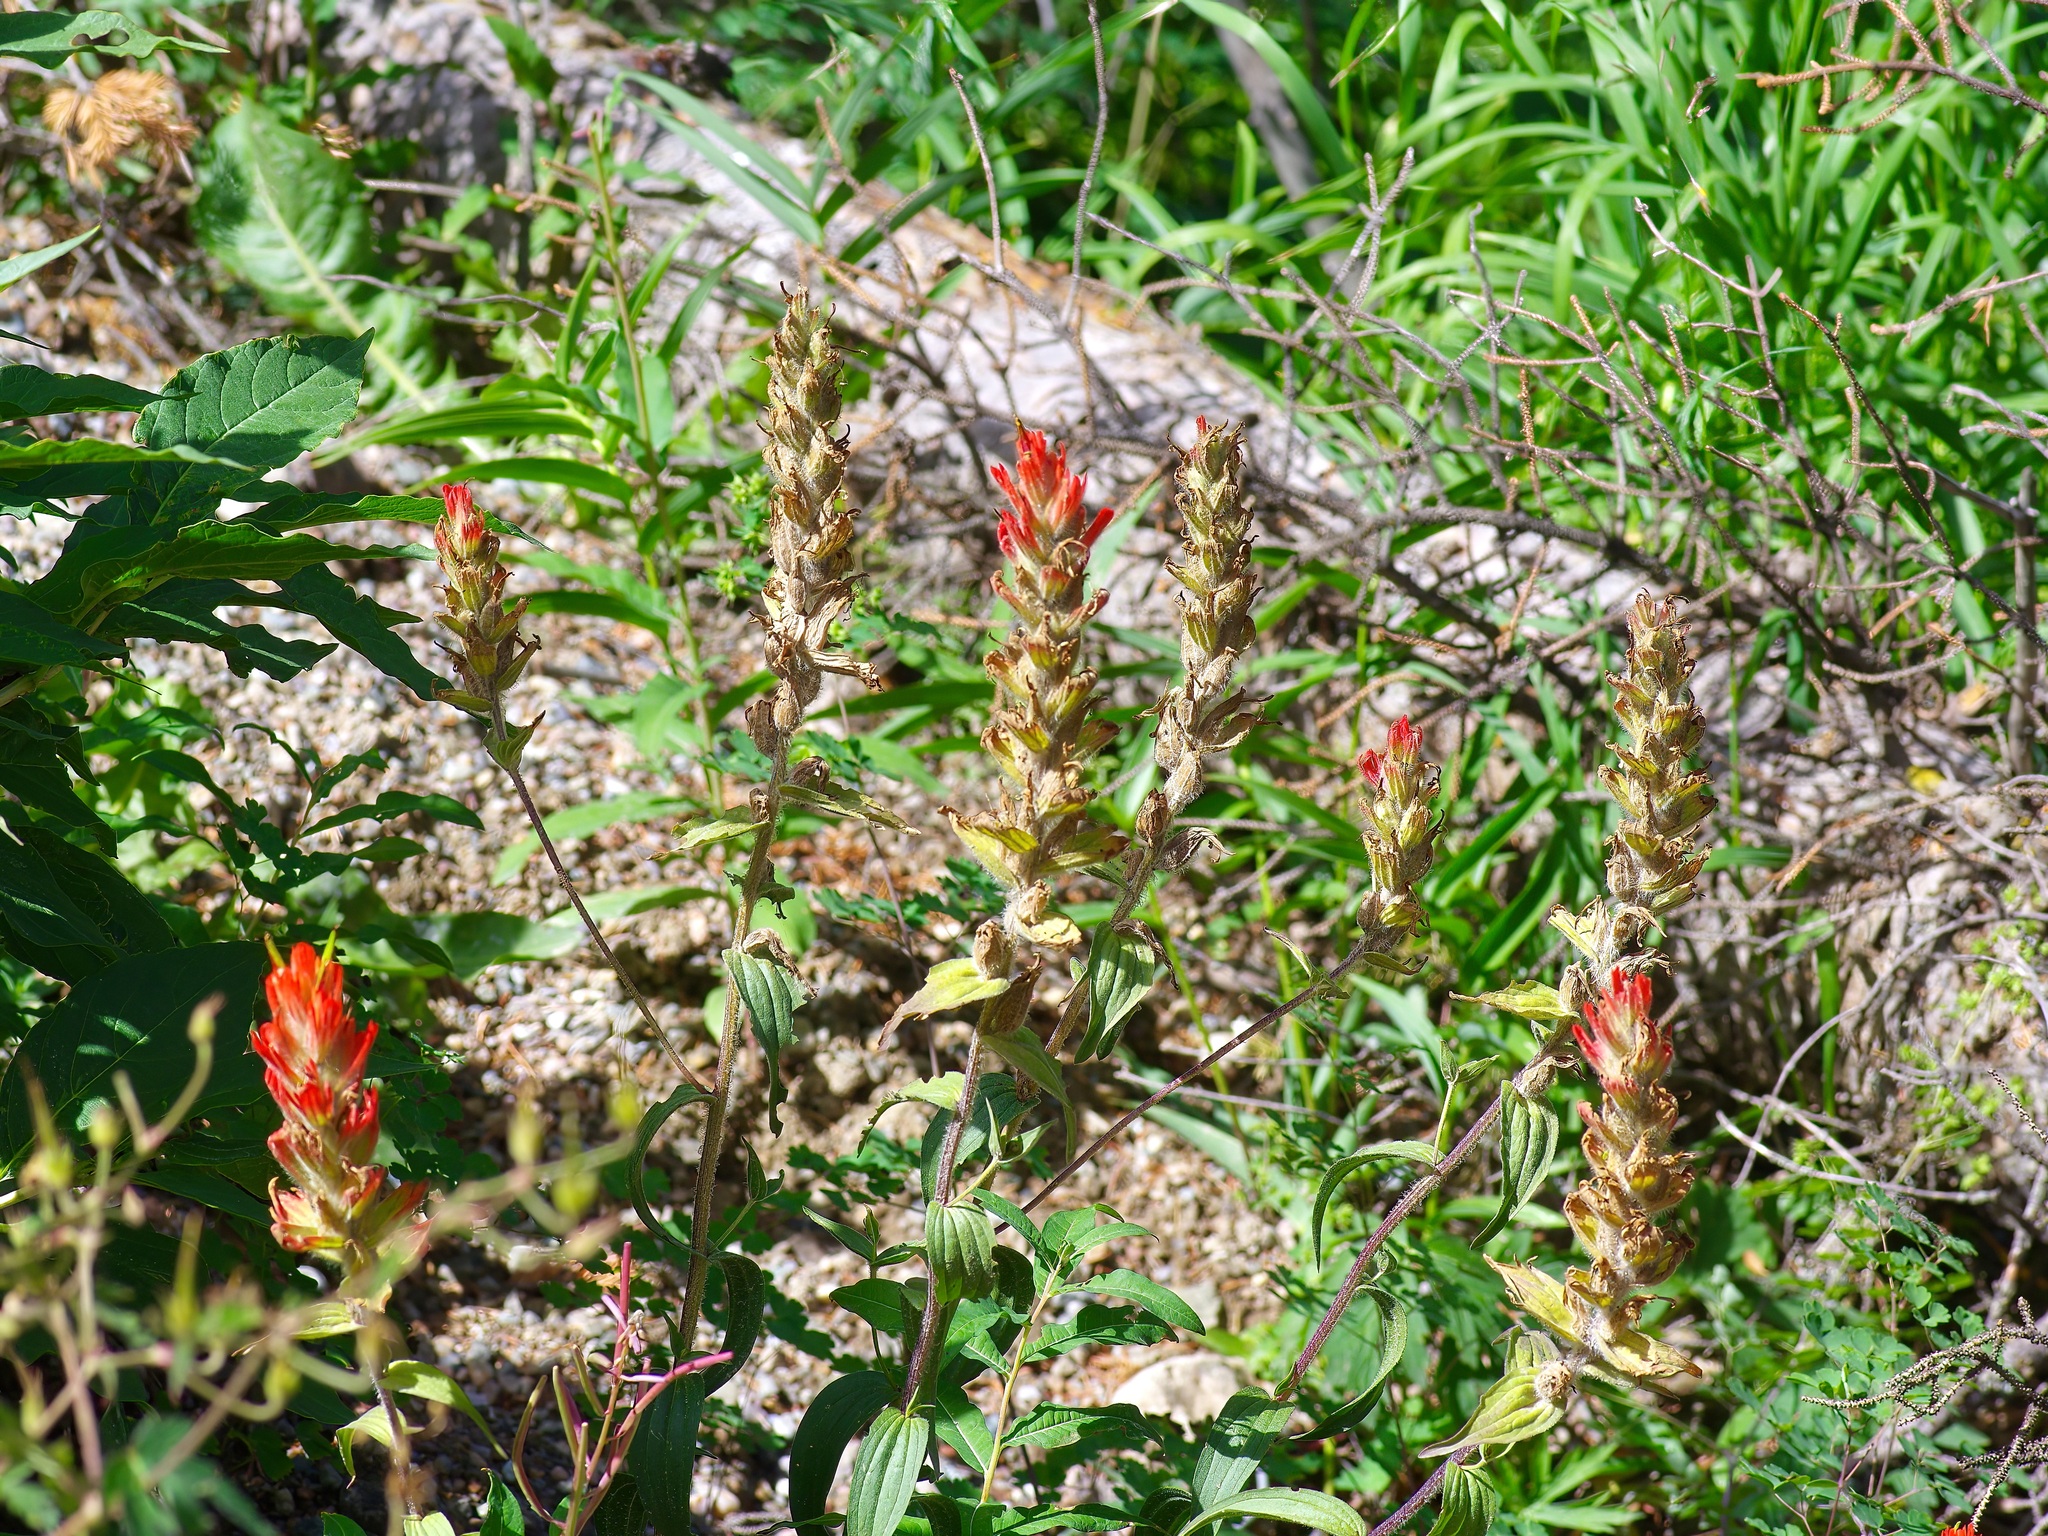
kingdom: Plantae
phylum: Tracheophyta
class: Magnoliopsida
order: Lamiales
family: Orobanchaceae
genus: Castilleja
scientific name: Castilleja miniata
